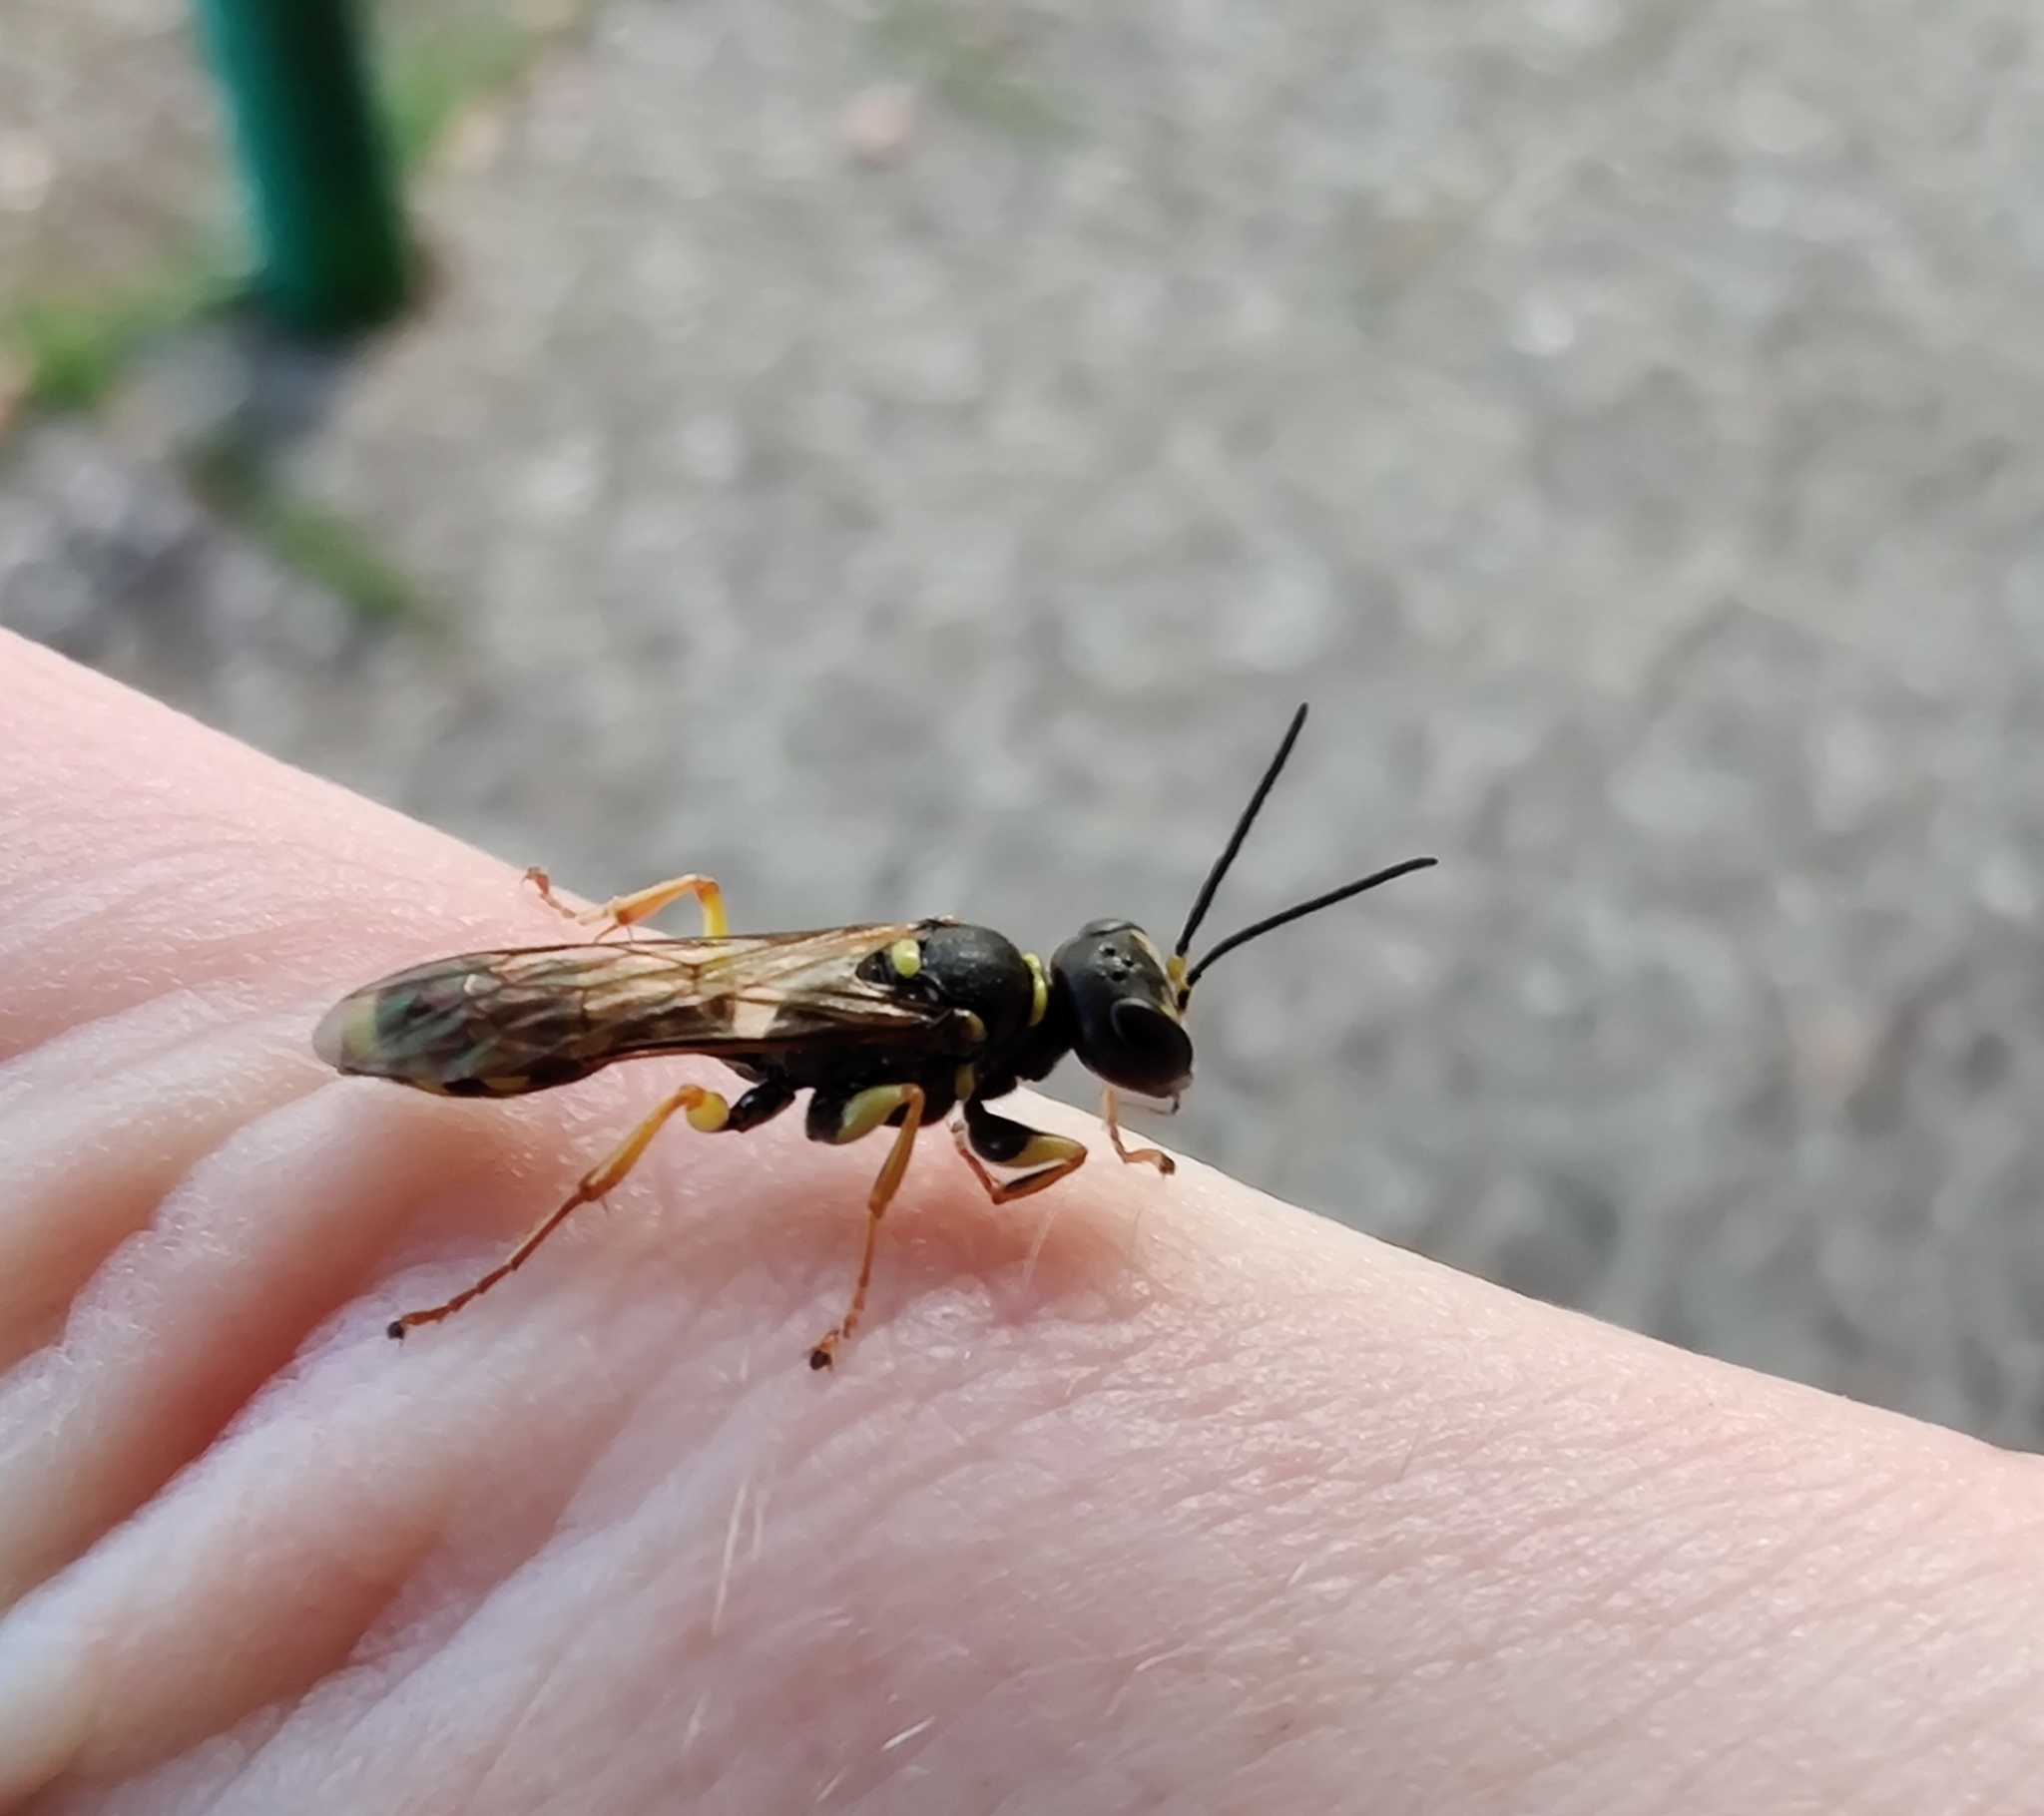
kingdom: Animalia
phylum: Arthropoda
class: Insecta
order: Hymenoptera
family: Crabronidae
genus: Mellinus
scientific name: Mellinus arvensis
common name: Field digger wasp
